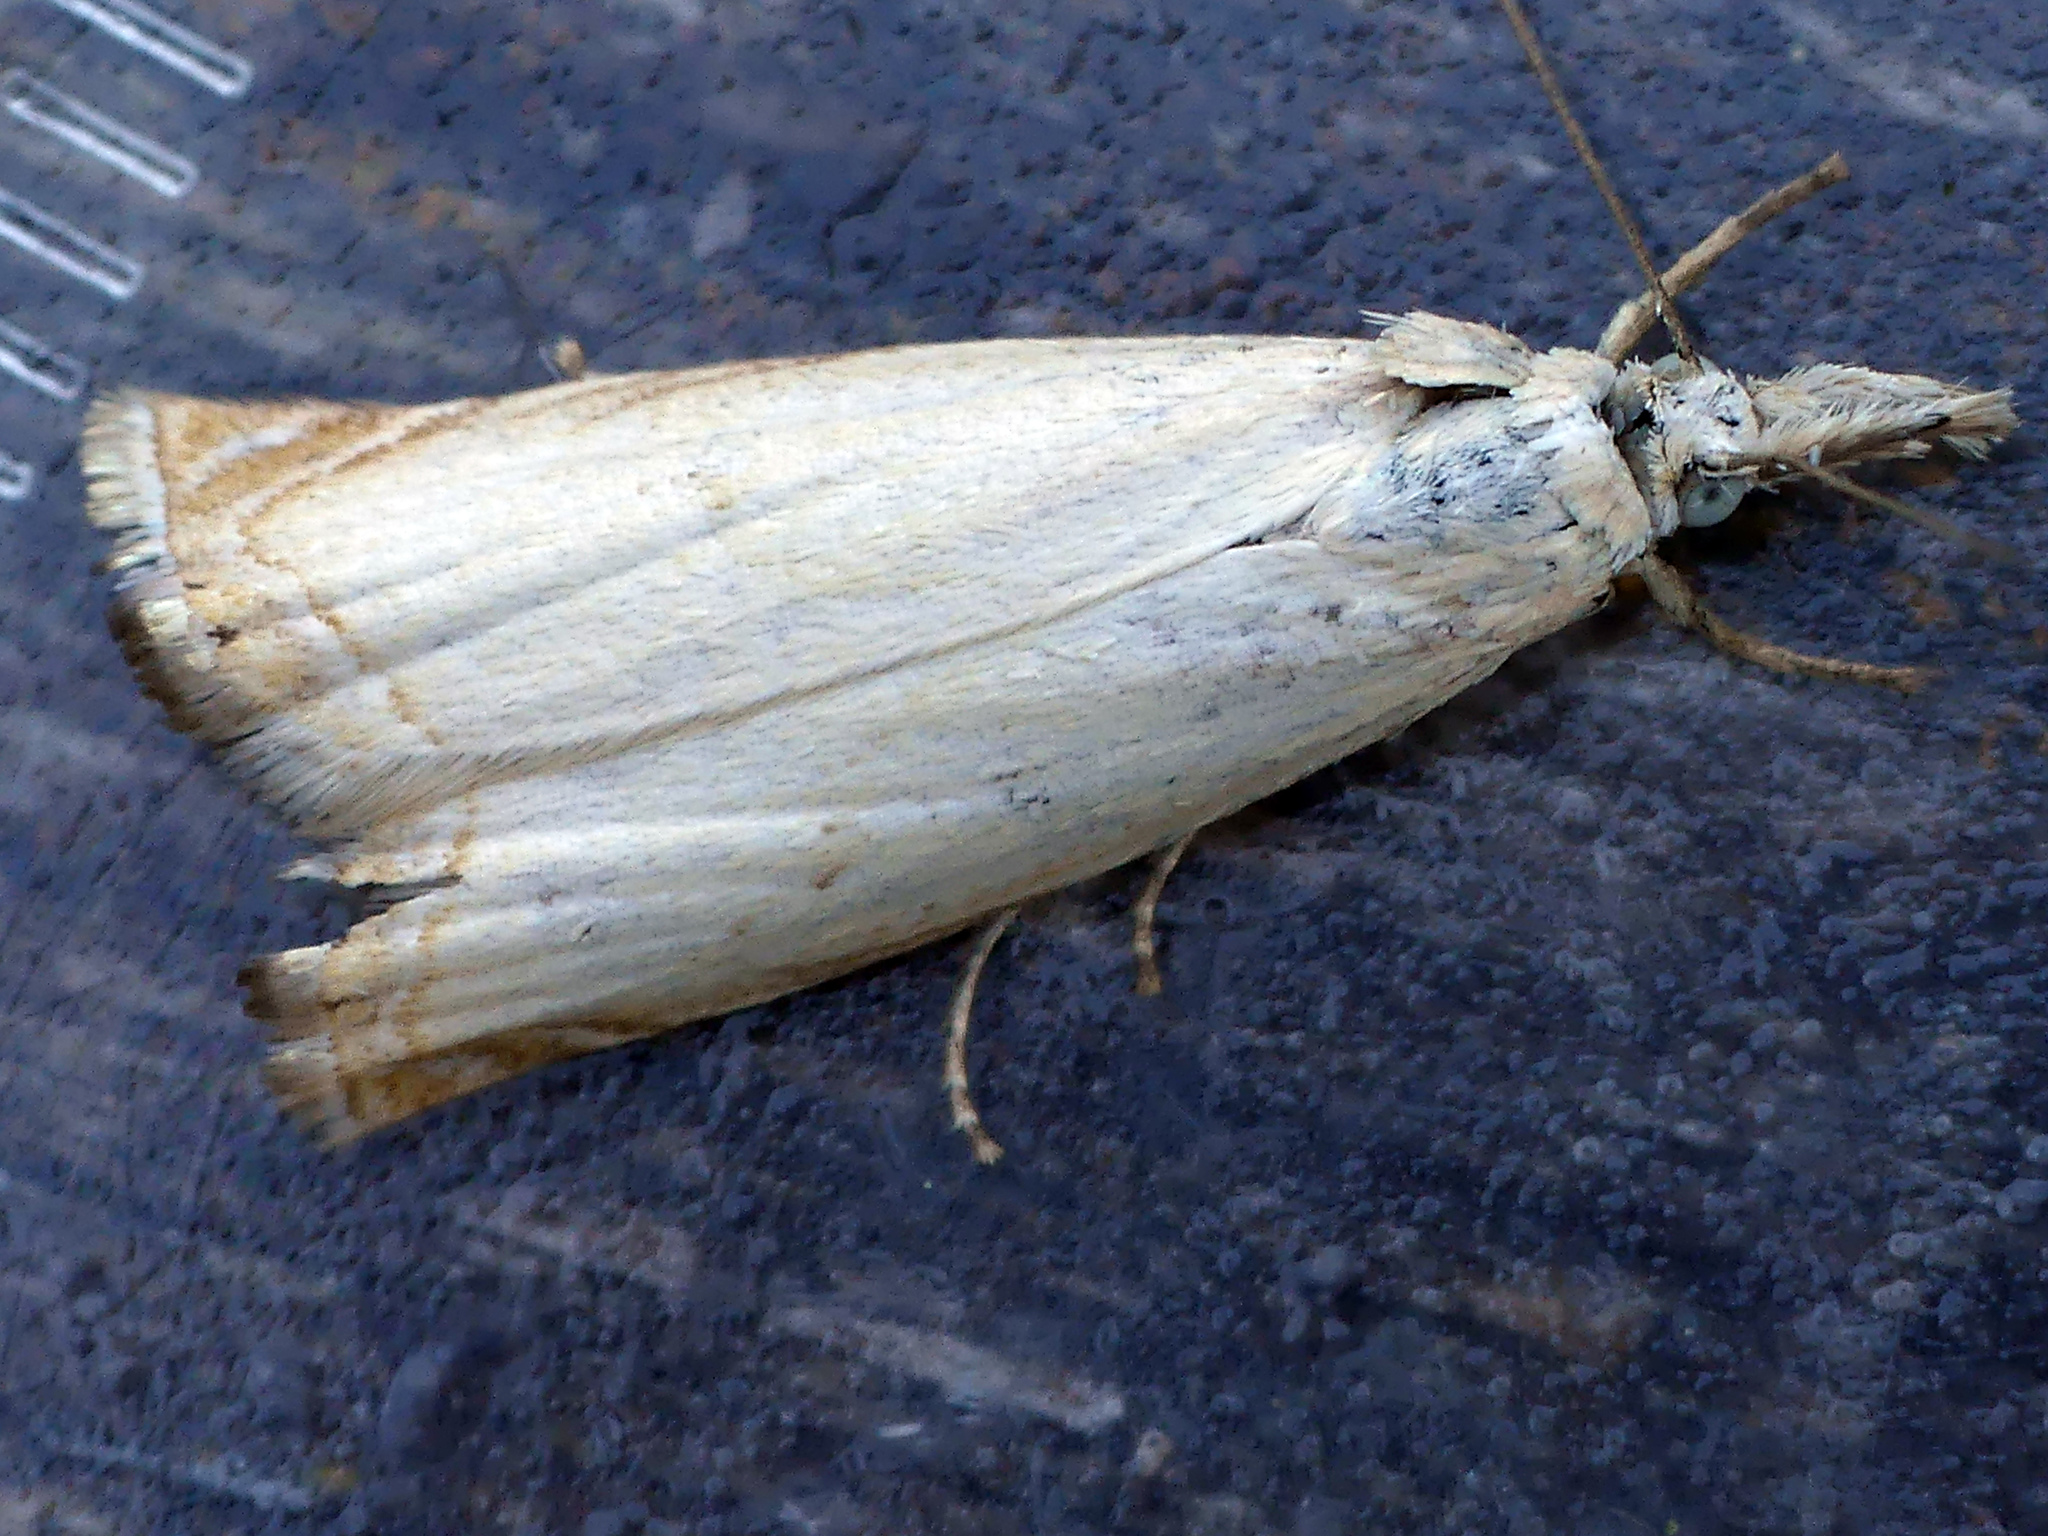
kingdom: Animalia
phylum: Arthropoda
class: Insecta
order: Lepidoptera
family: Crambidae
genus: Chrysoteuchia
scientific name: Chrysoteuchia culmella
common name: Garden grass-veneer
